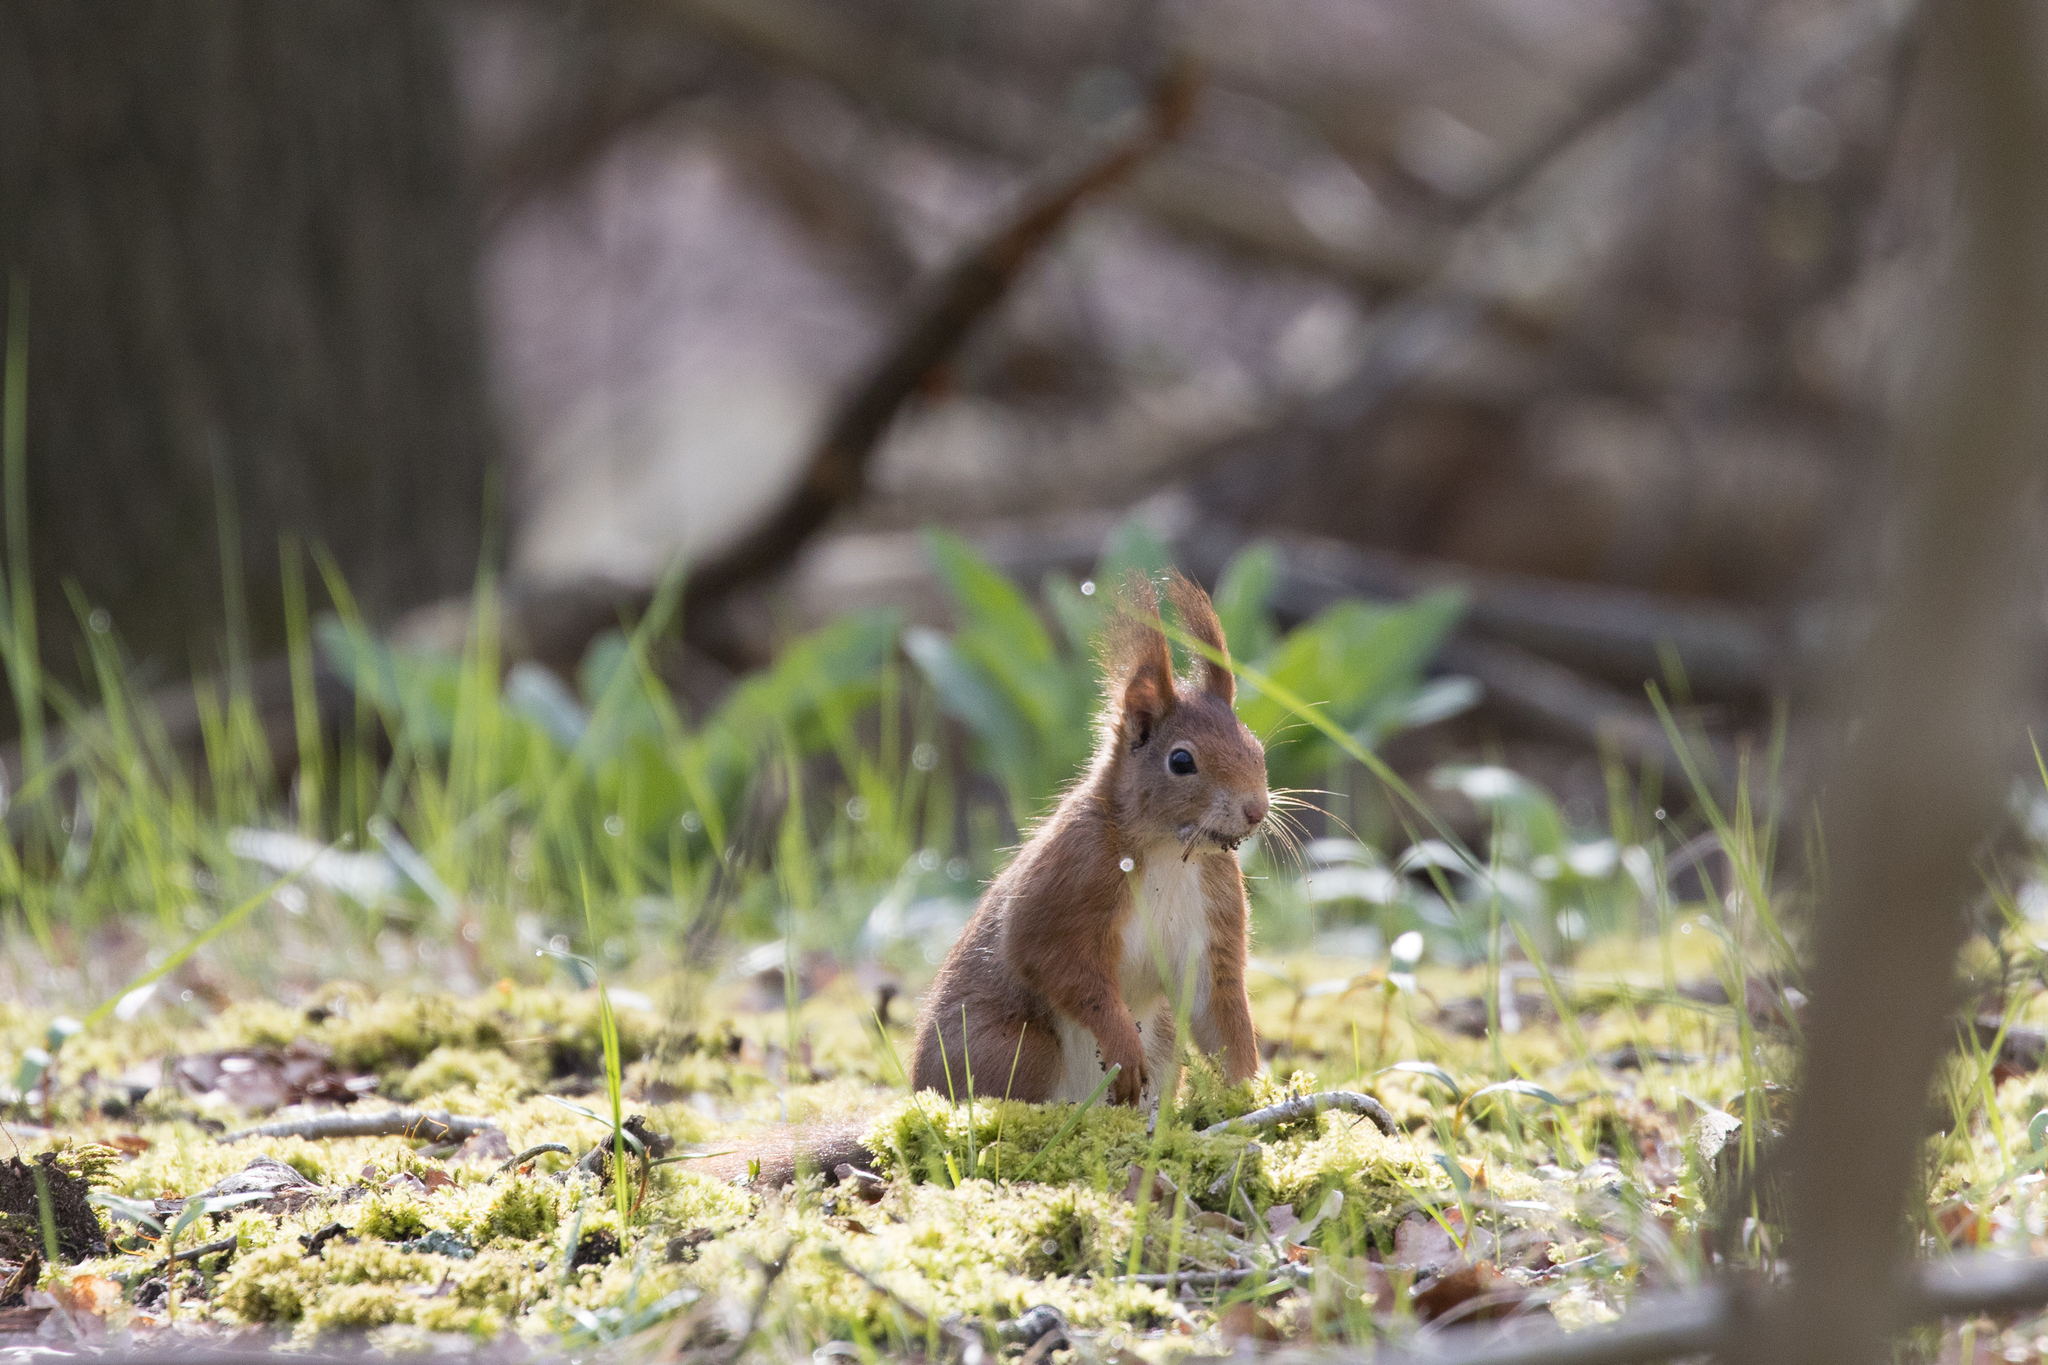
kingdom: Animalia
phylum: Chordata
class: Mammalia
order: Rodentia
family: Sciuridae
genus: Sciurus
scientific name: Sciurus vulgaris
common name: Eurasian red squirrel
